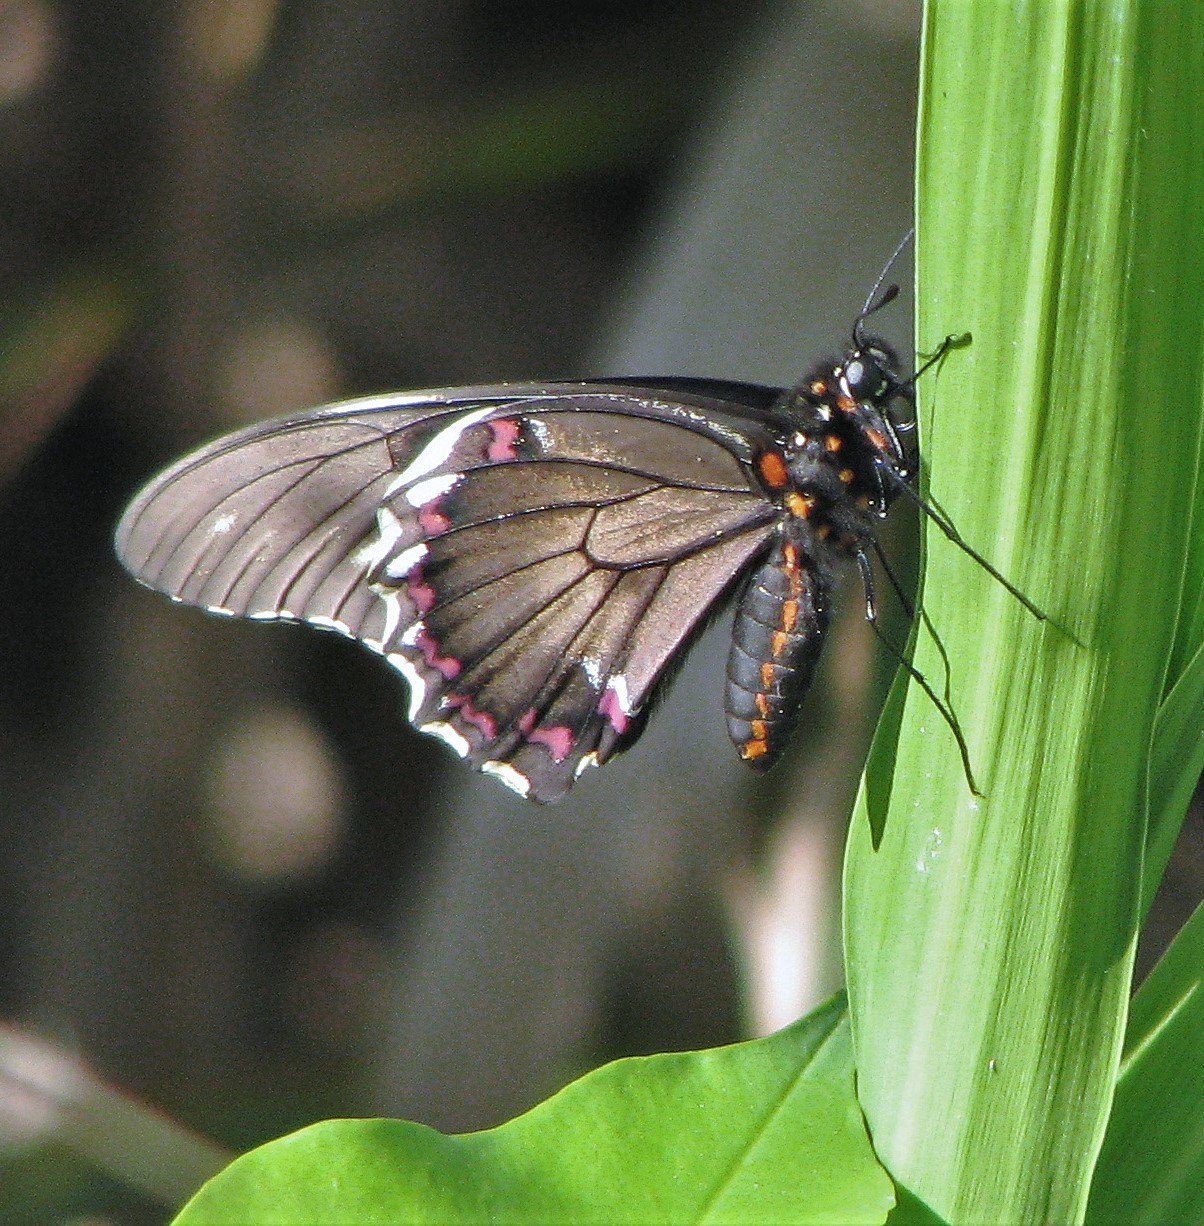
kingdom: Animalia
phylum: Arthropoda
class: Insecta
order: Lepidoptera
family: Papilionidae
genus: Battus
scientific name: Battus polydamas
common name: Polydamas swallowtail
